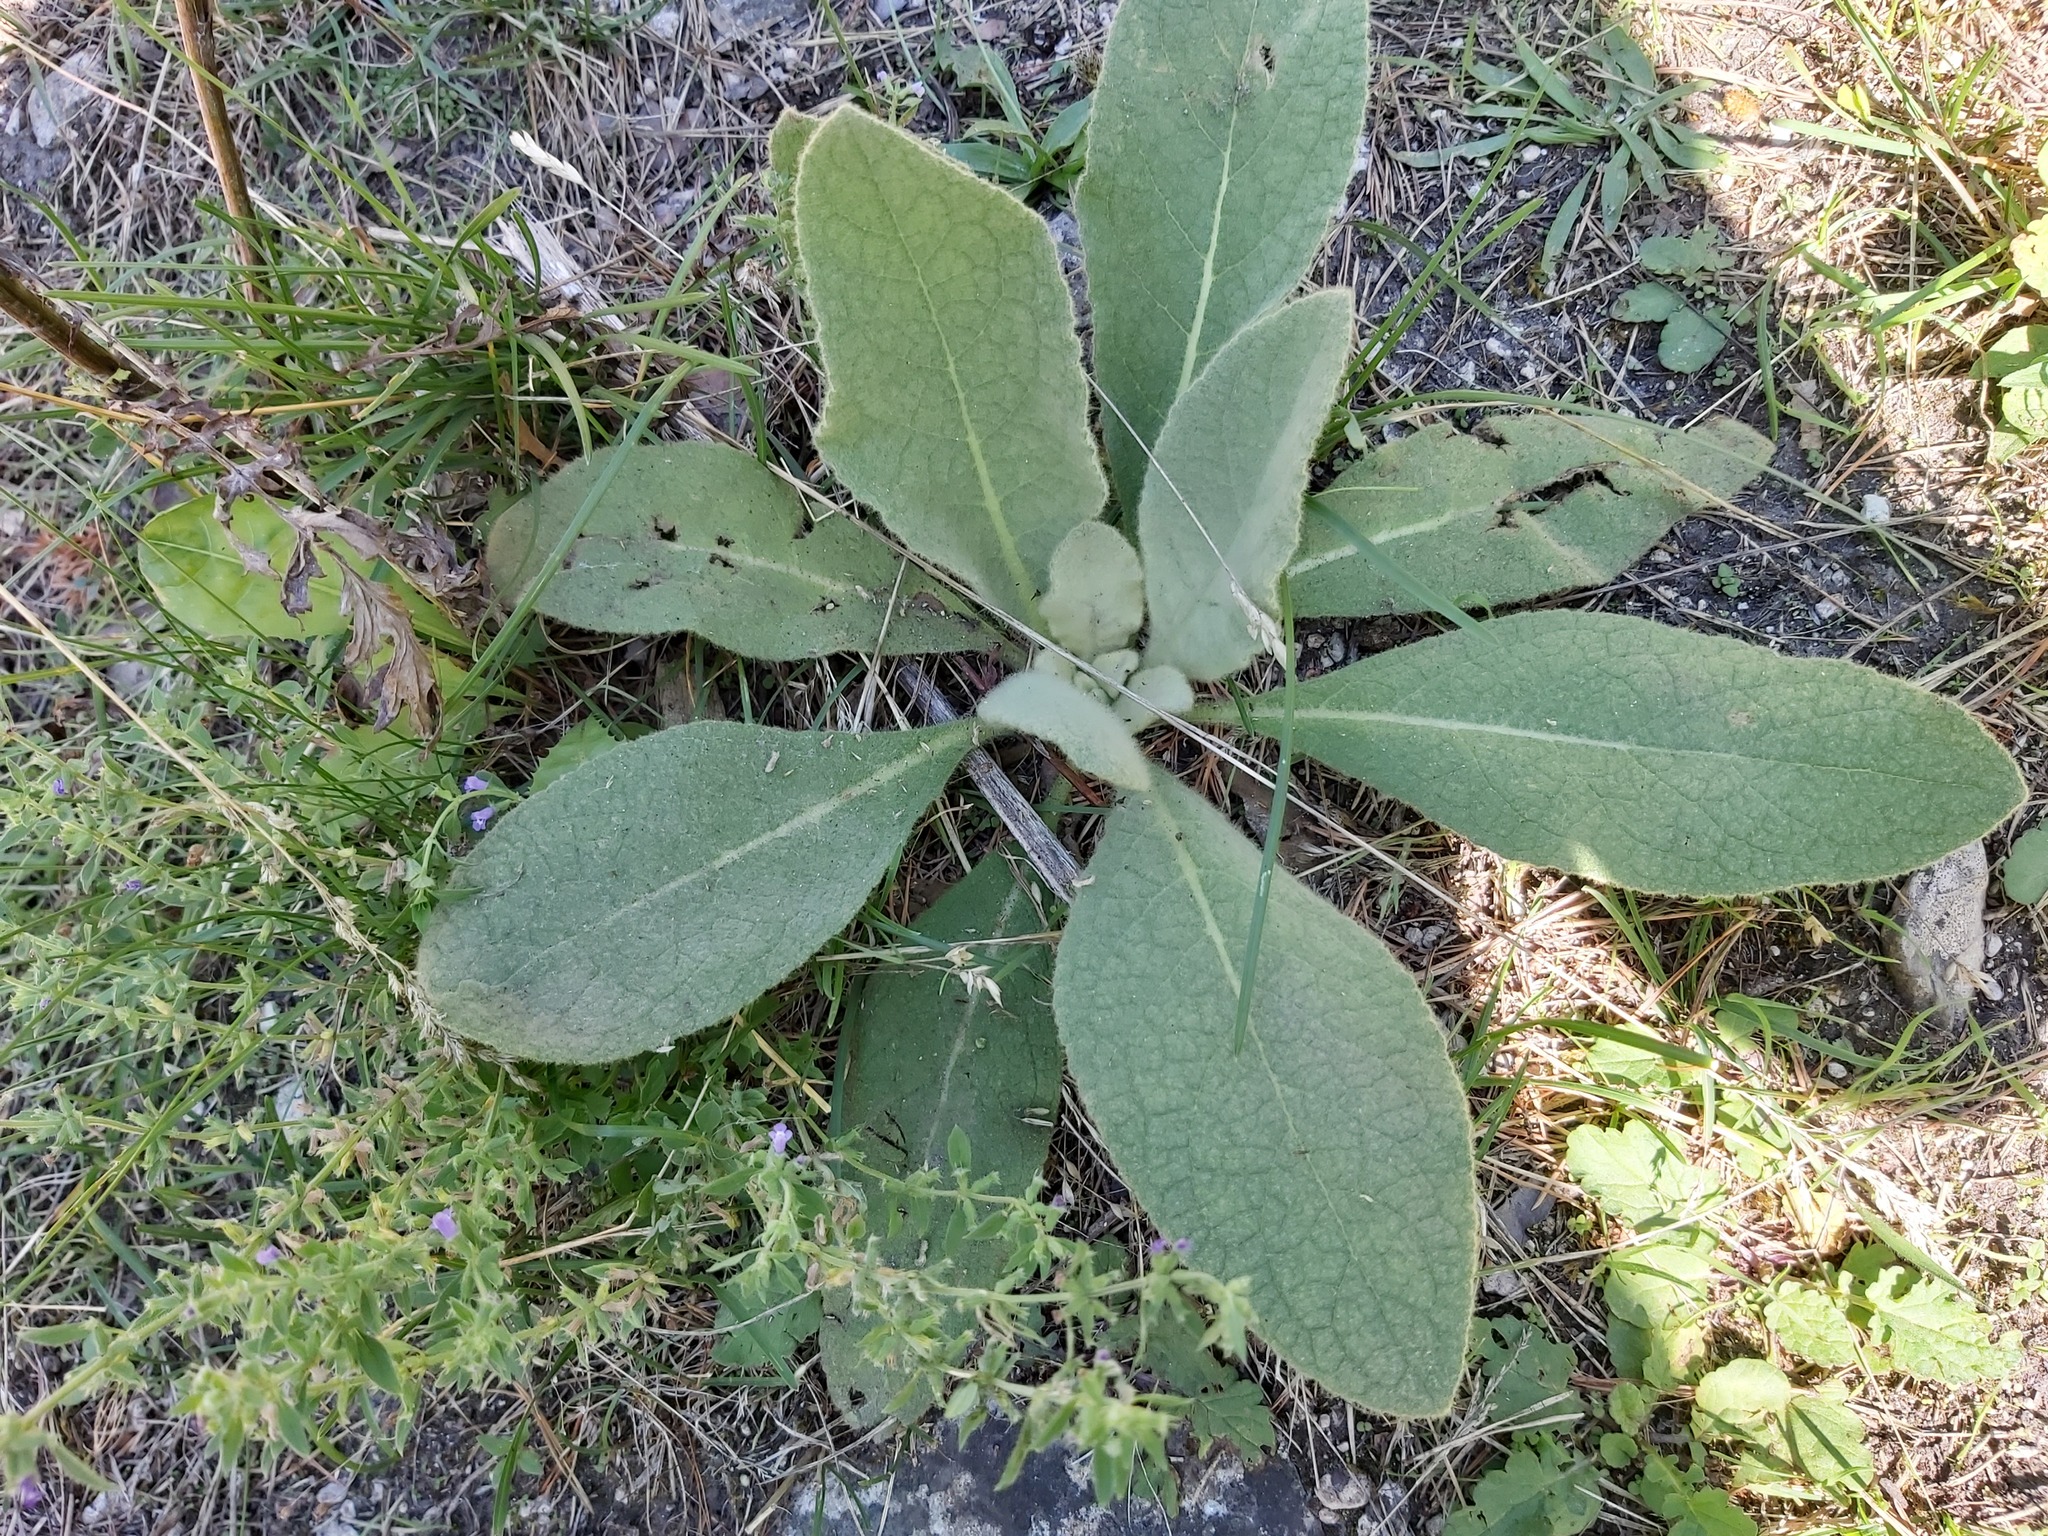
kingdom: Plantae
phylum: Tracheophyta
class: Magnoliopsida
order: Lamiales
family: Scrophulariaceae
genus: Verbascum
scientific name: Verbascum thapsus
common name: Common mullein
